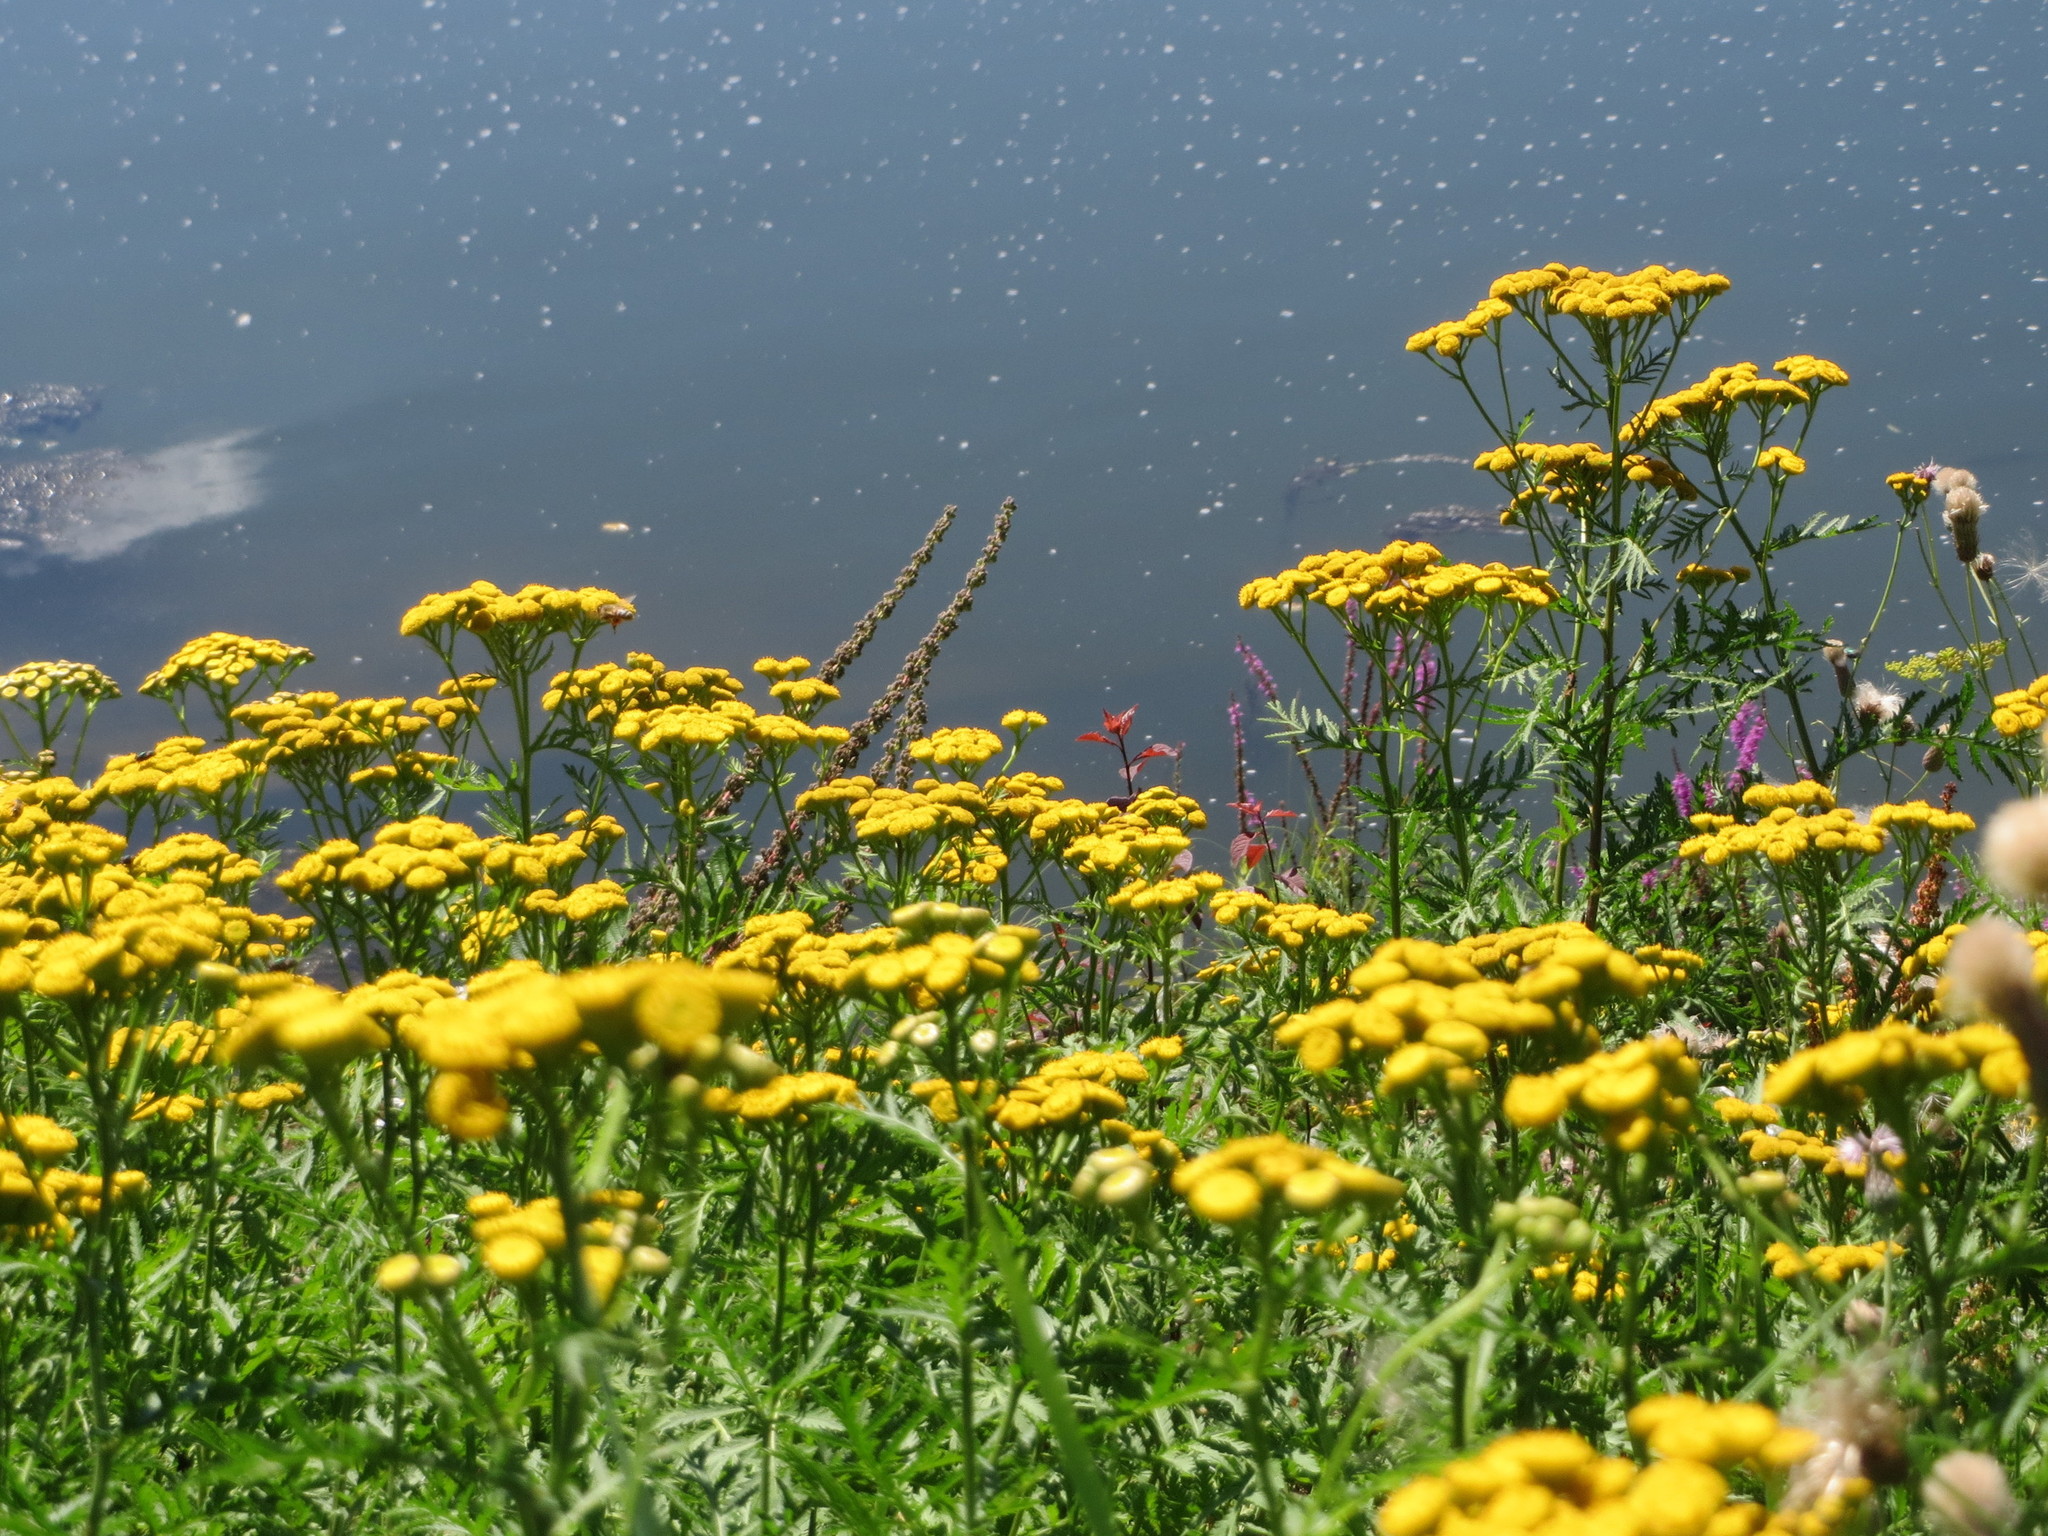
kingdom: Plantae
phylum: Tracheophyta
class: Magnoliopsida
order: Asterales
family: Asteraceae
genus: Tanacetum
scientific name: Tanacetum vulgare
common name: Common tansy
